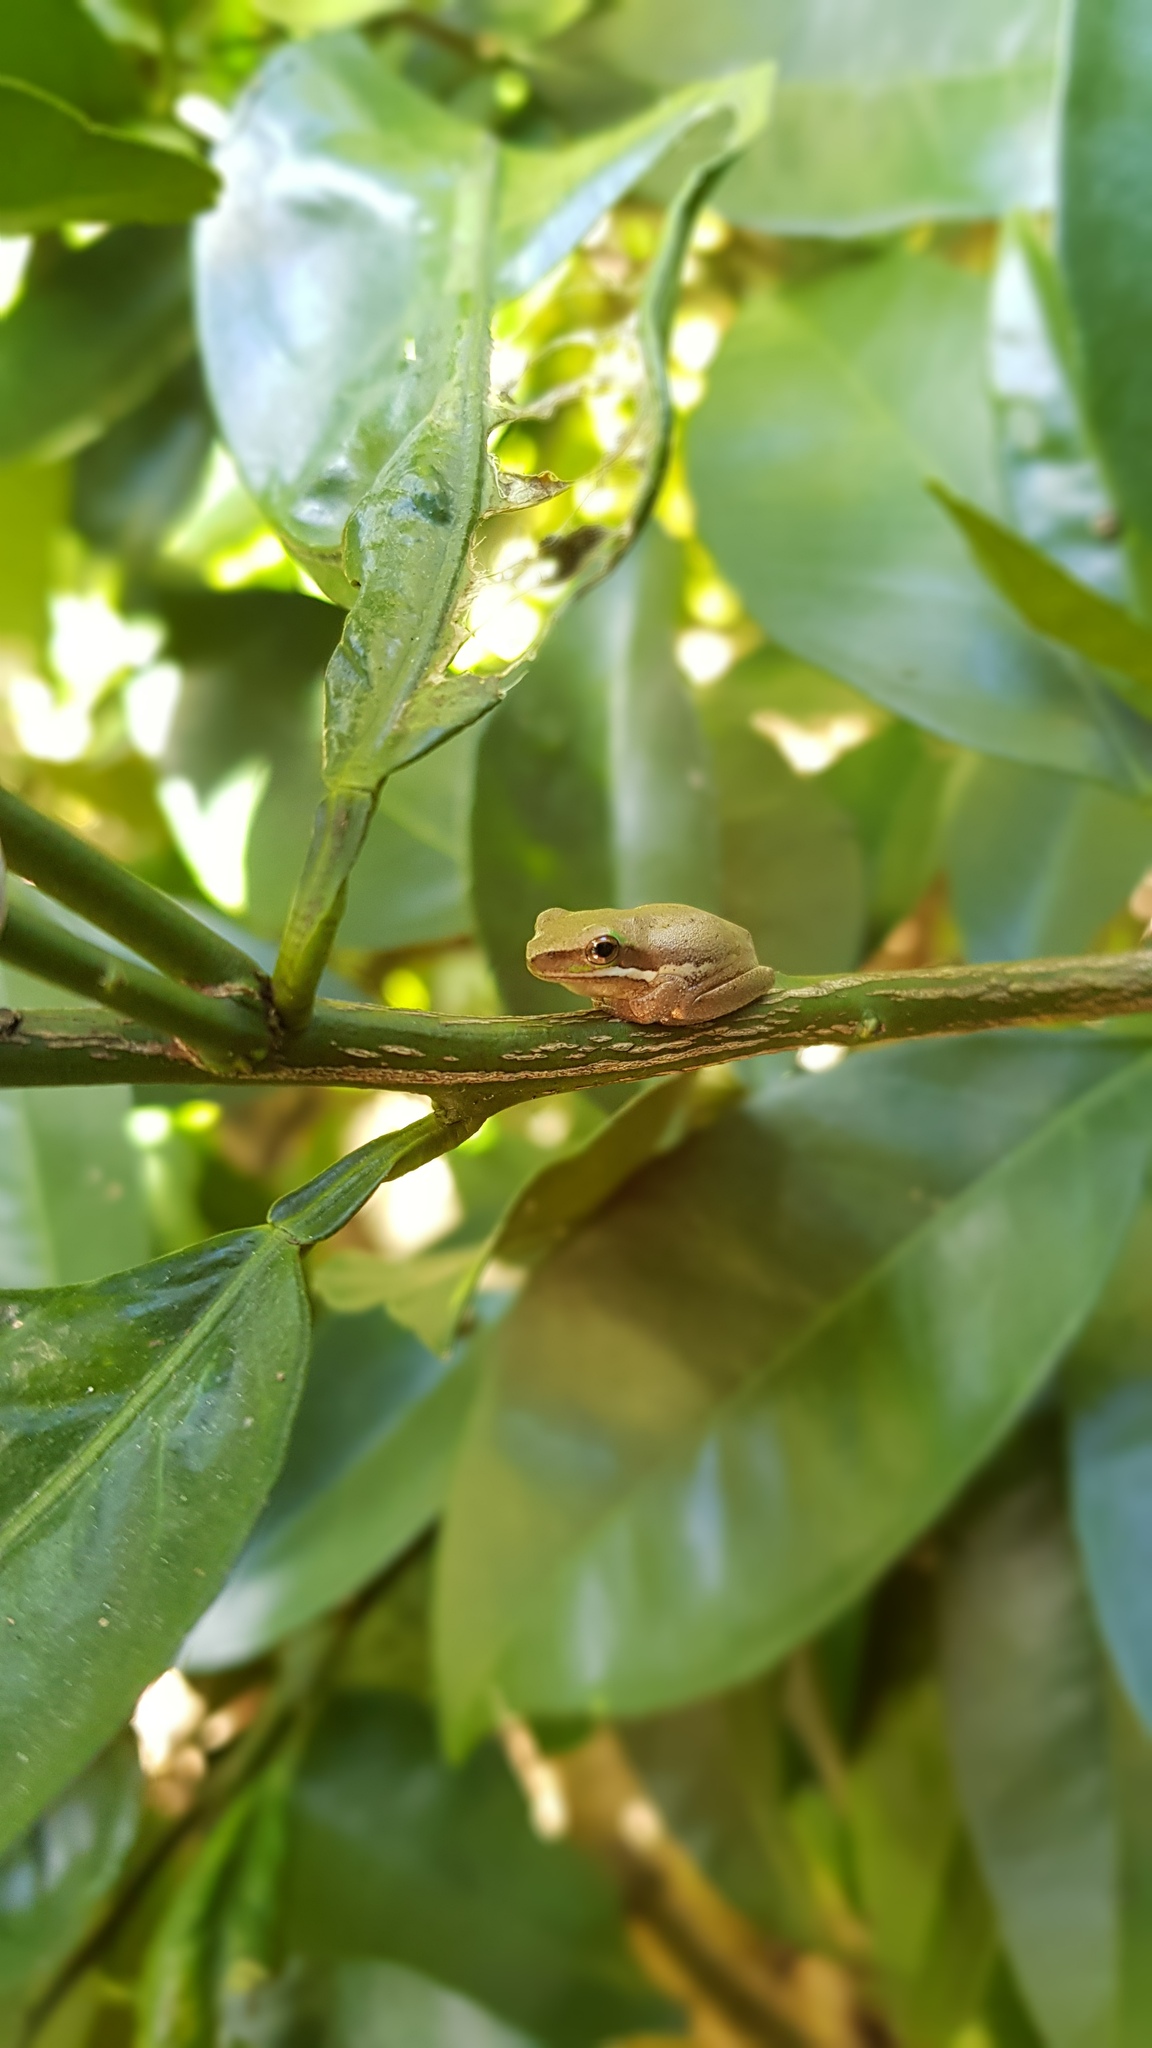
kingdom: Animalia
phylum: Chordata
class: Amphibia
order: Anura
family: Pelodryadidae
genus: Litoria
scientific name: Litoria fallax
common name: Eastern dwarf treefrog
